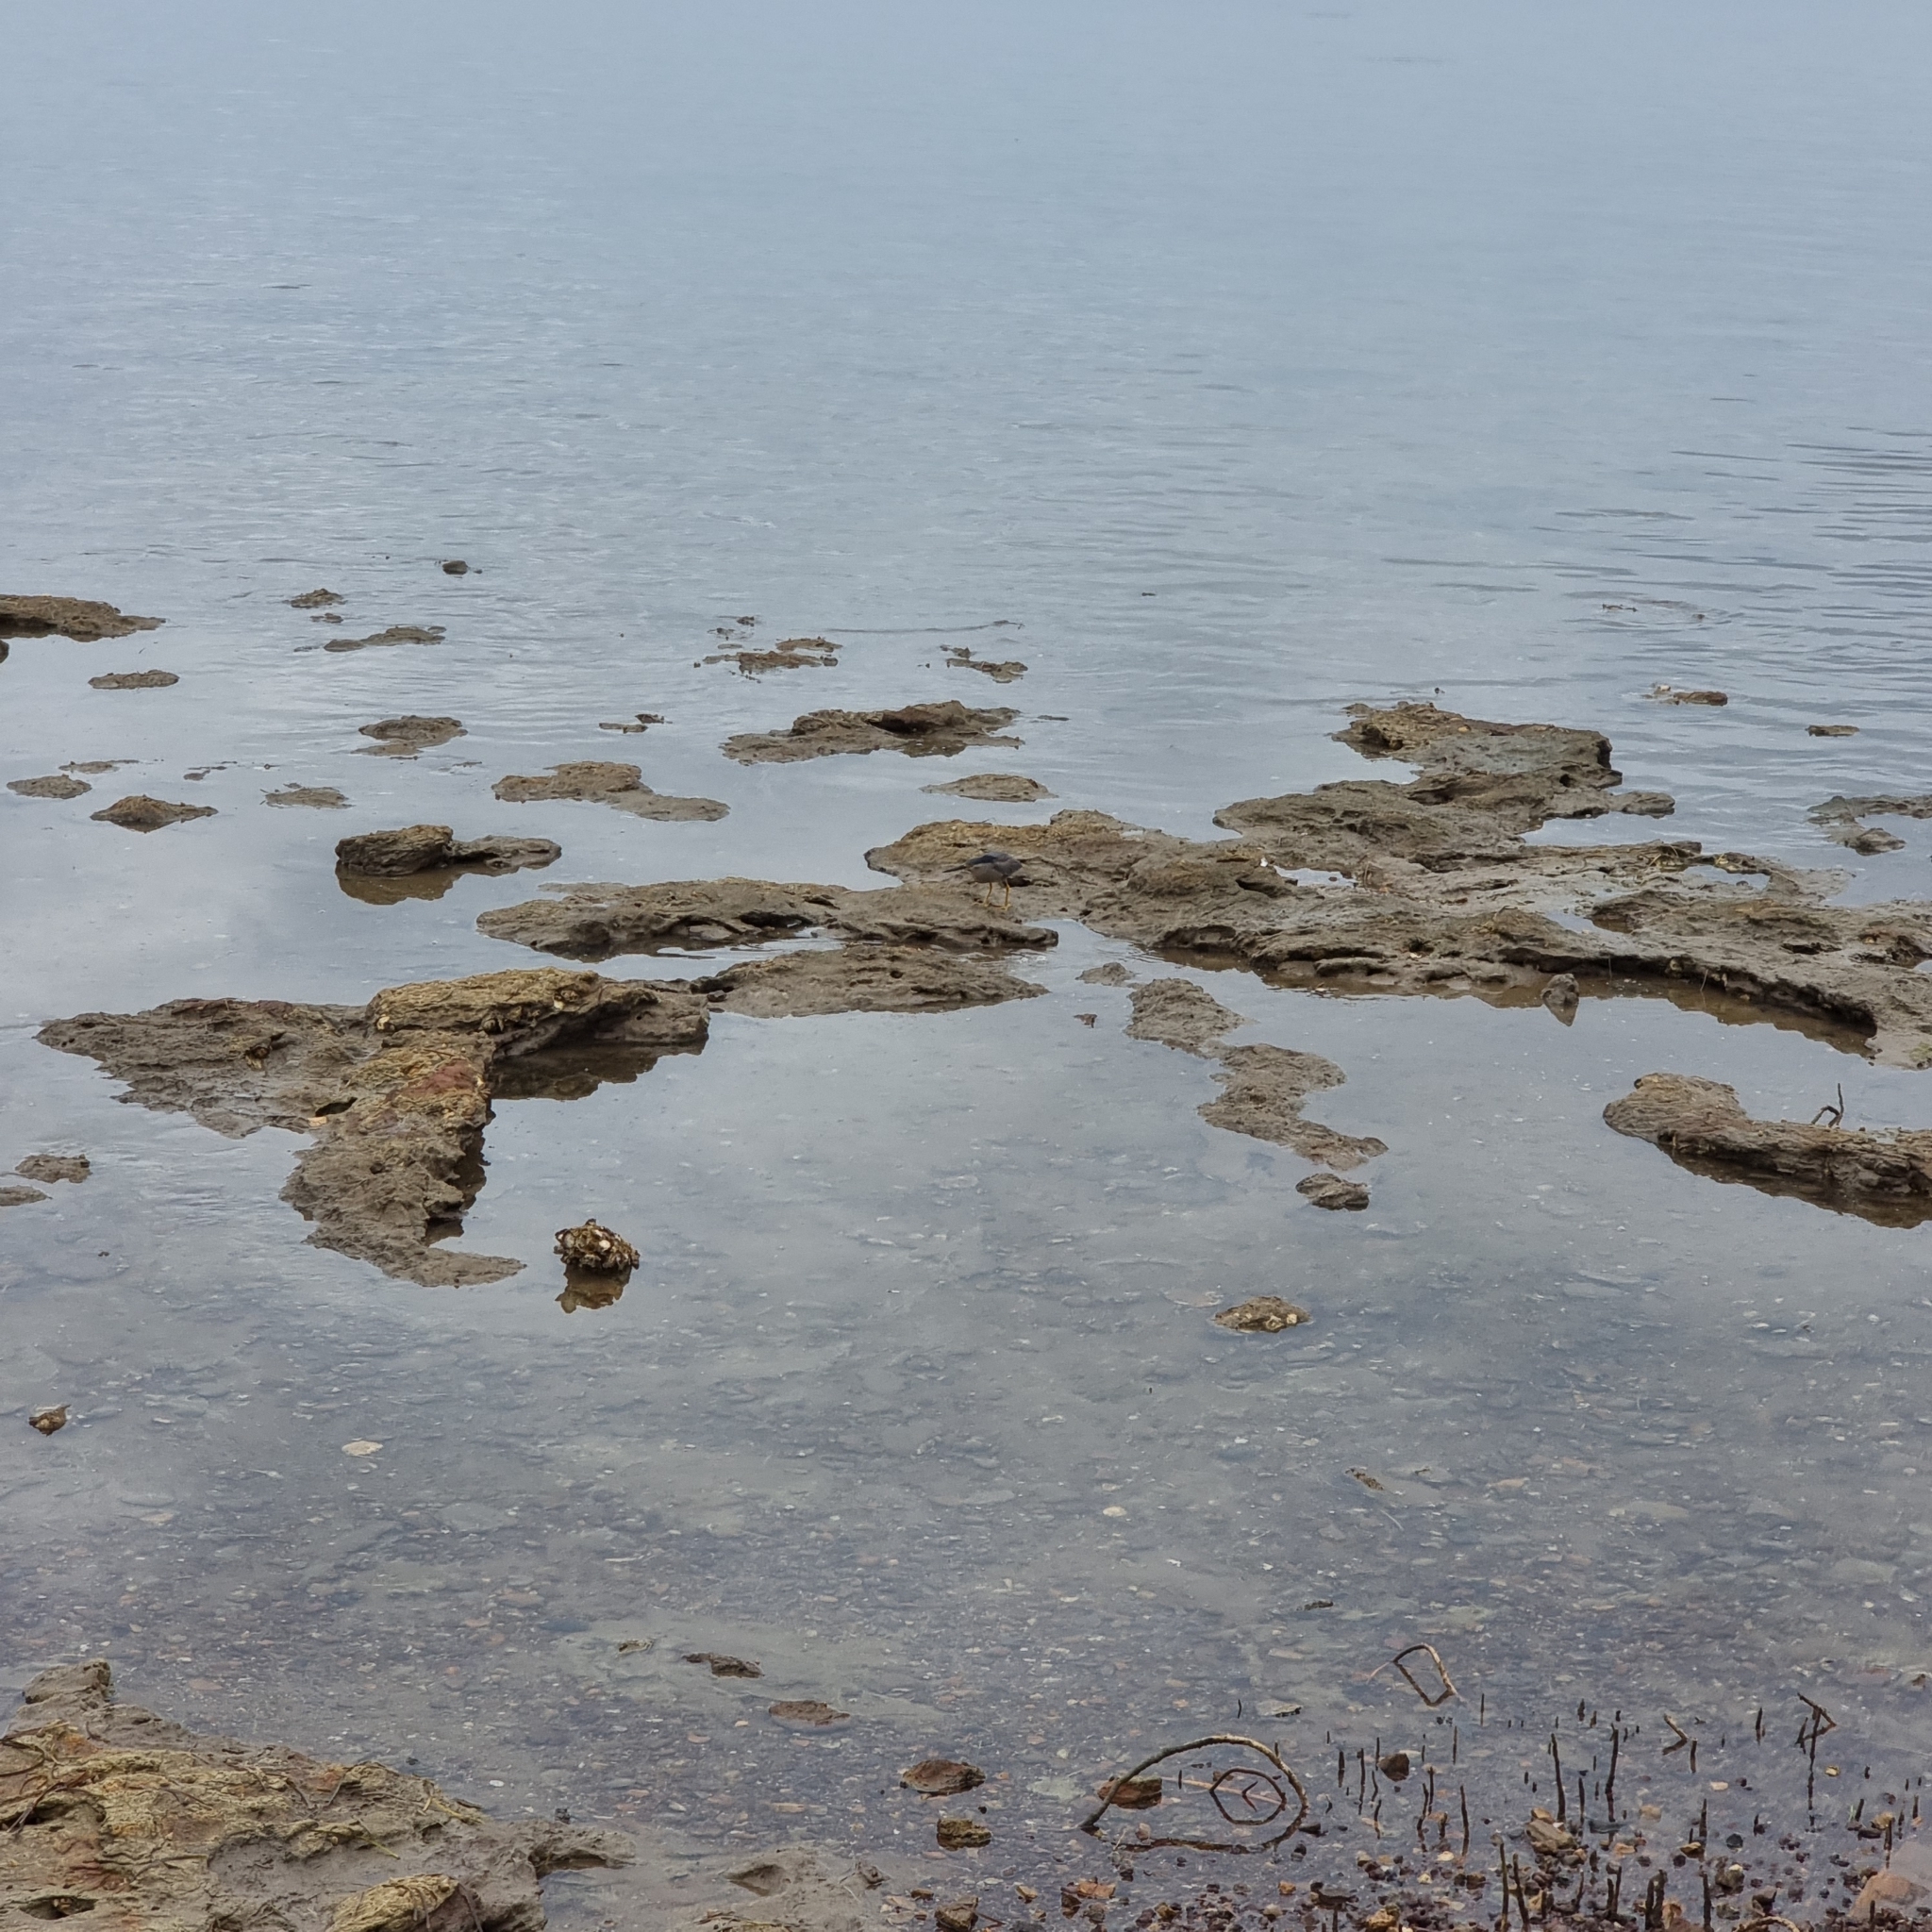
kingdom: Animalia
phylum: Chordata
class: Aves
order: Pelecaniformes
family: Ardeidae
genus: Butorides
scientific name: Butorides striata
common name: Striated heron
